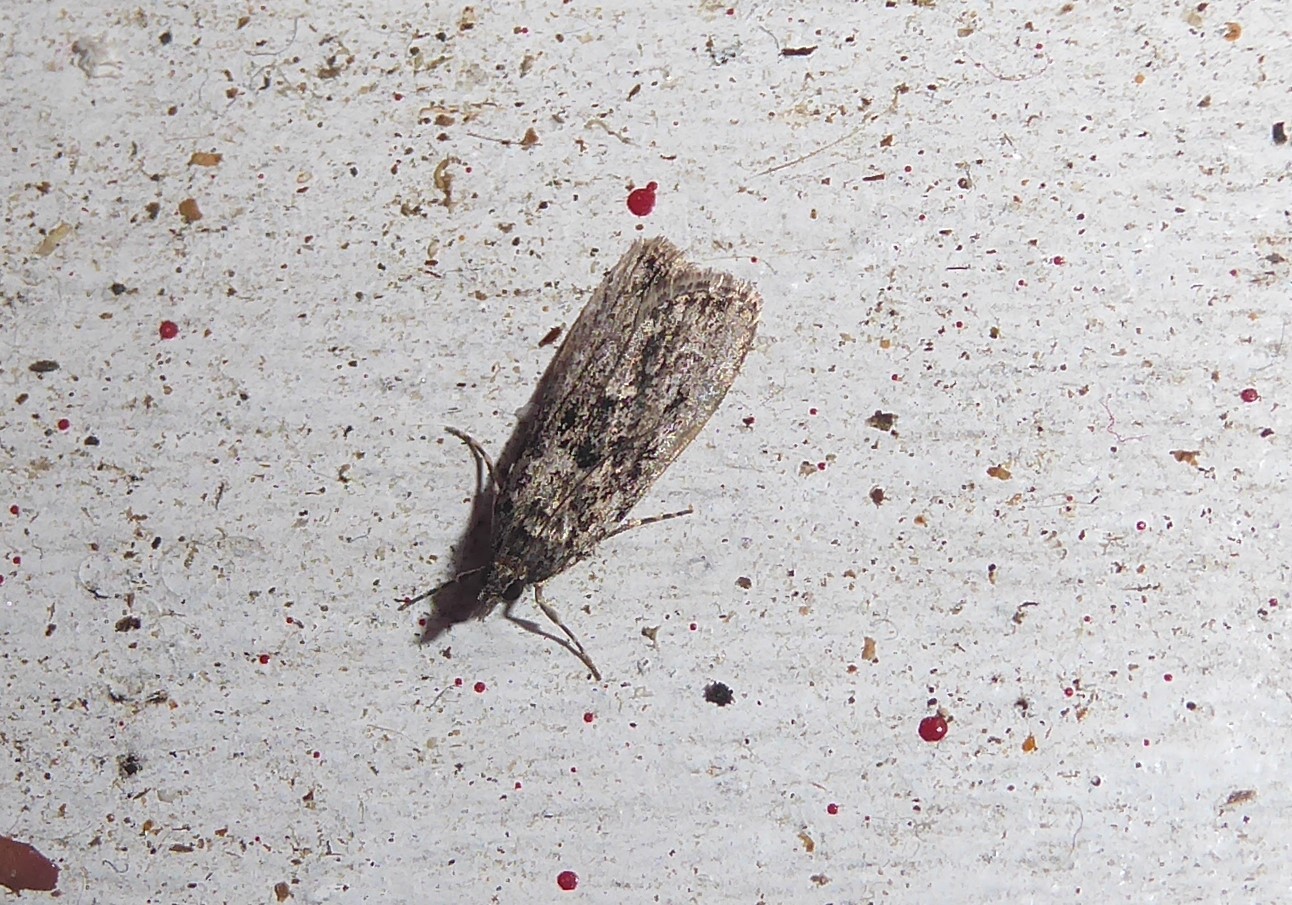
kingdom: Animalia
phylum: Arthropoda
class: Insecta
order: Lepidoptera
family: Crambidae
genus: Eudonia
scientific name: Eudonia philerga
